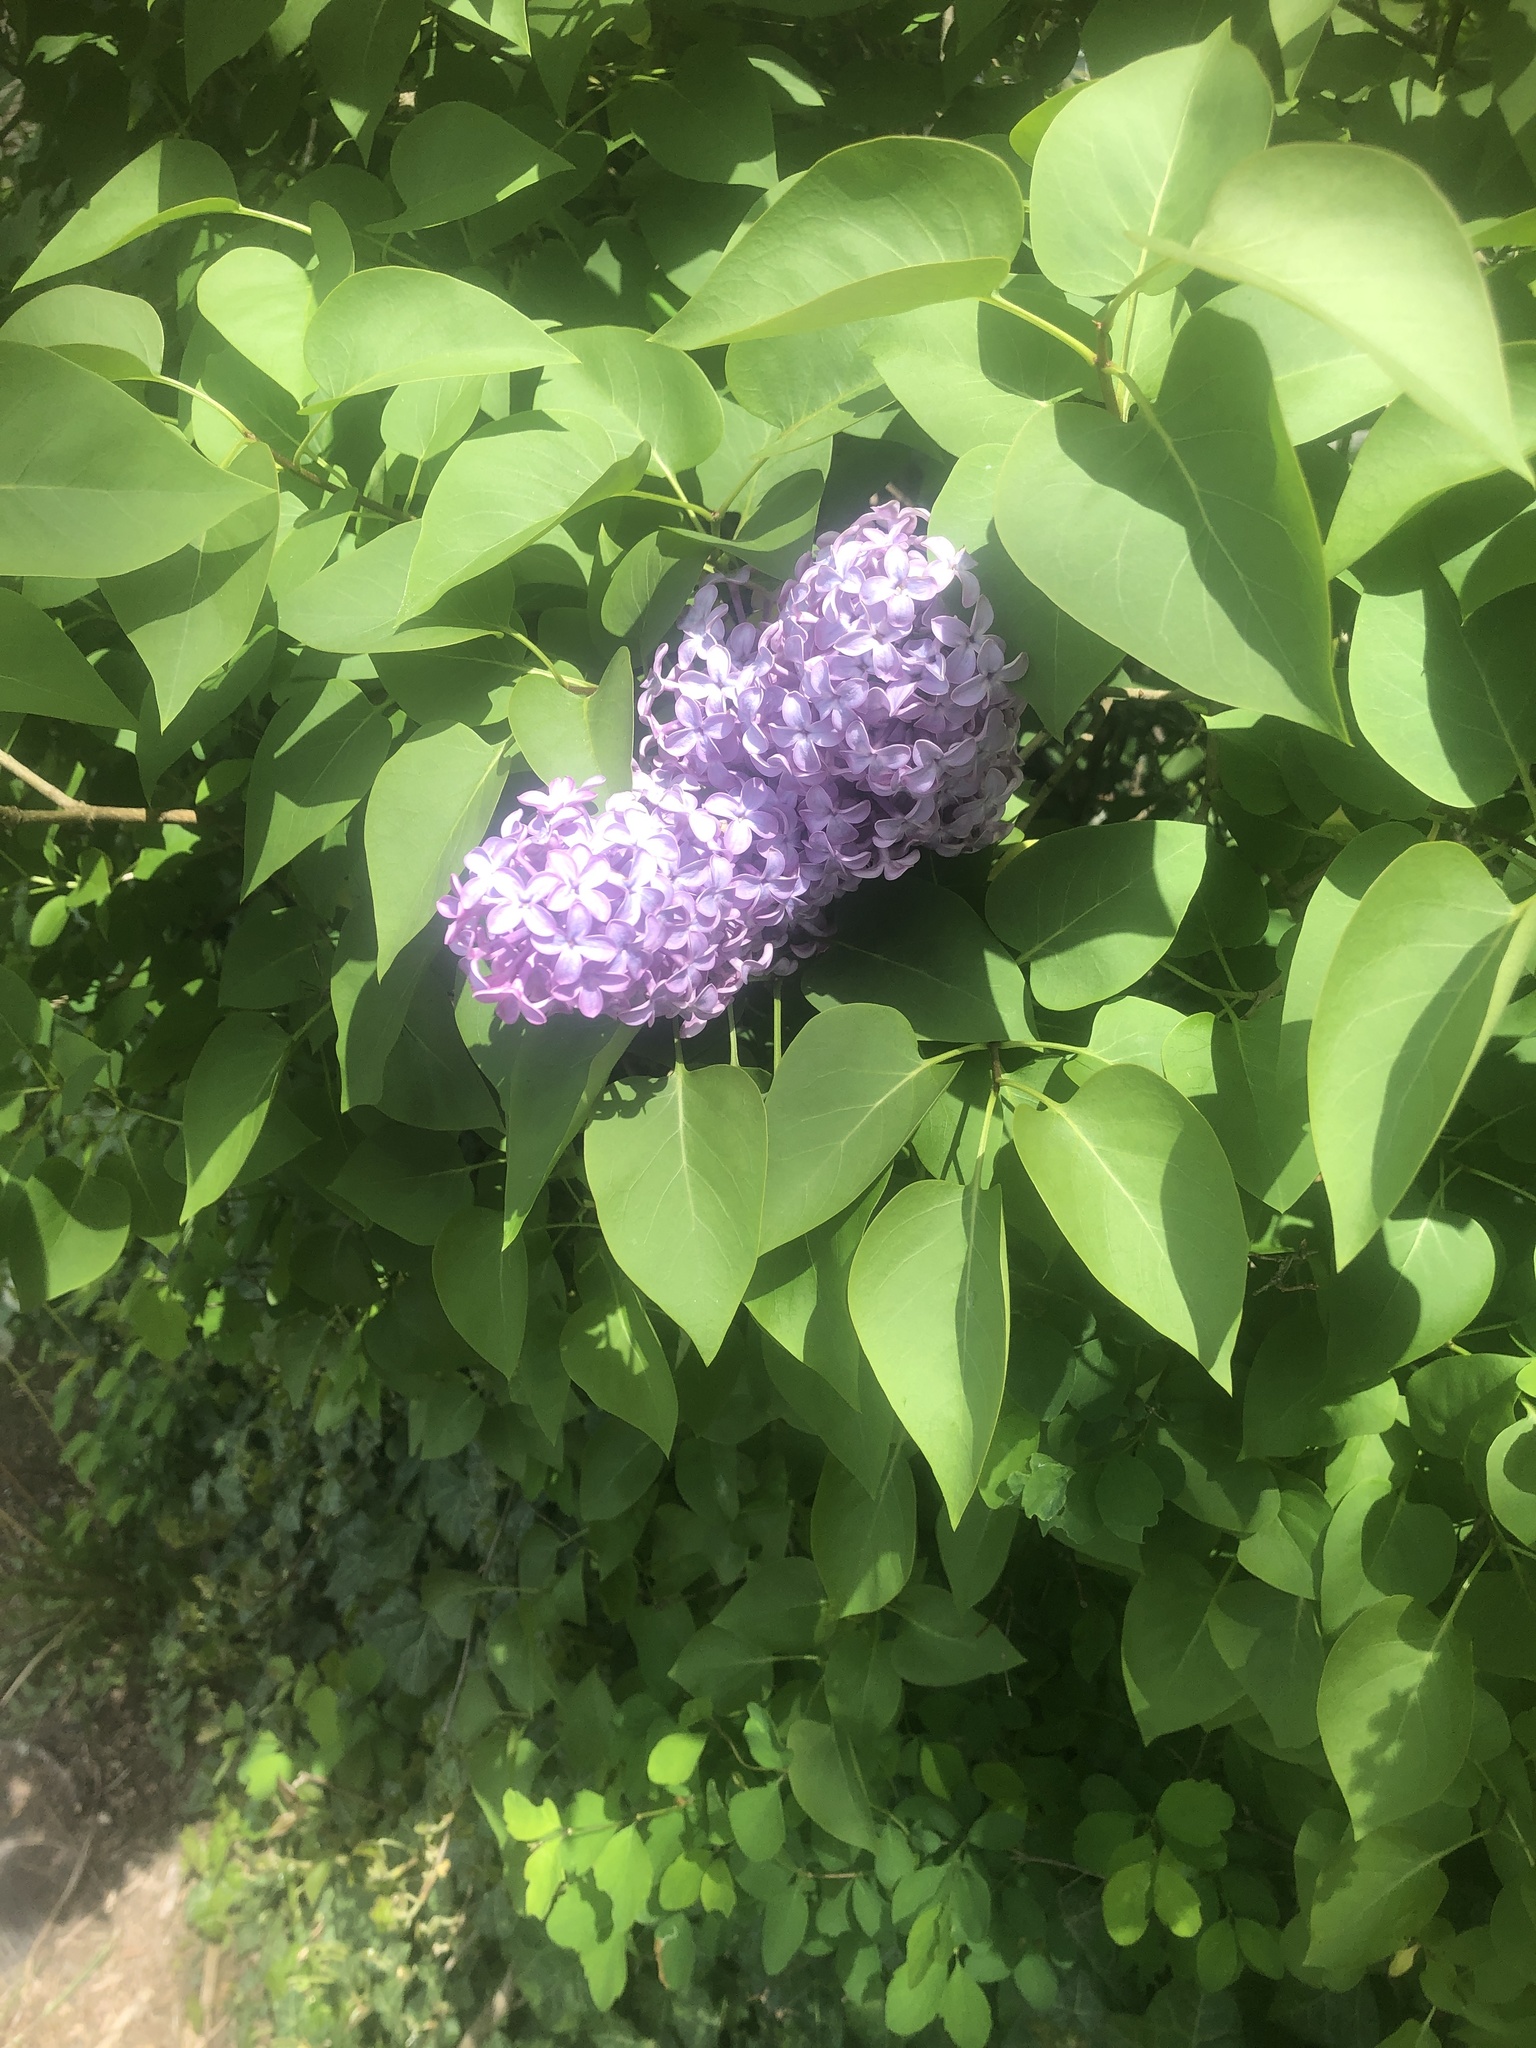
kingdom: Plantae
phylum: Tracheophyta
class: Magnoliopsida
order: Lamiales
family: Oleaceae
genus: Syringa
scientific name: Syringa vulgaris
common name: Common lilac
